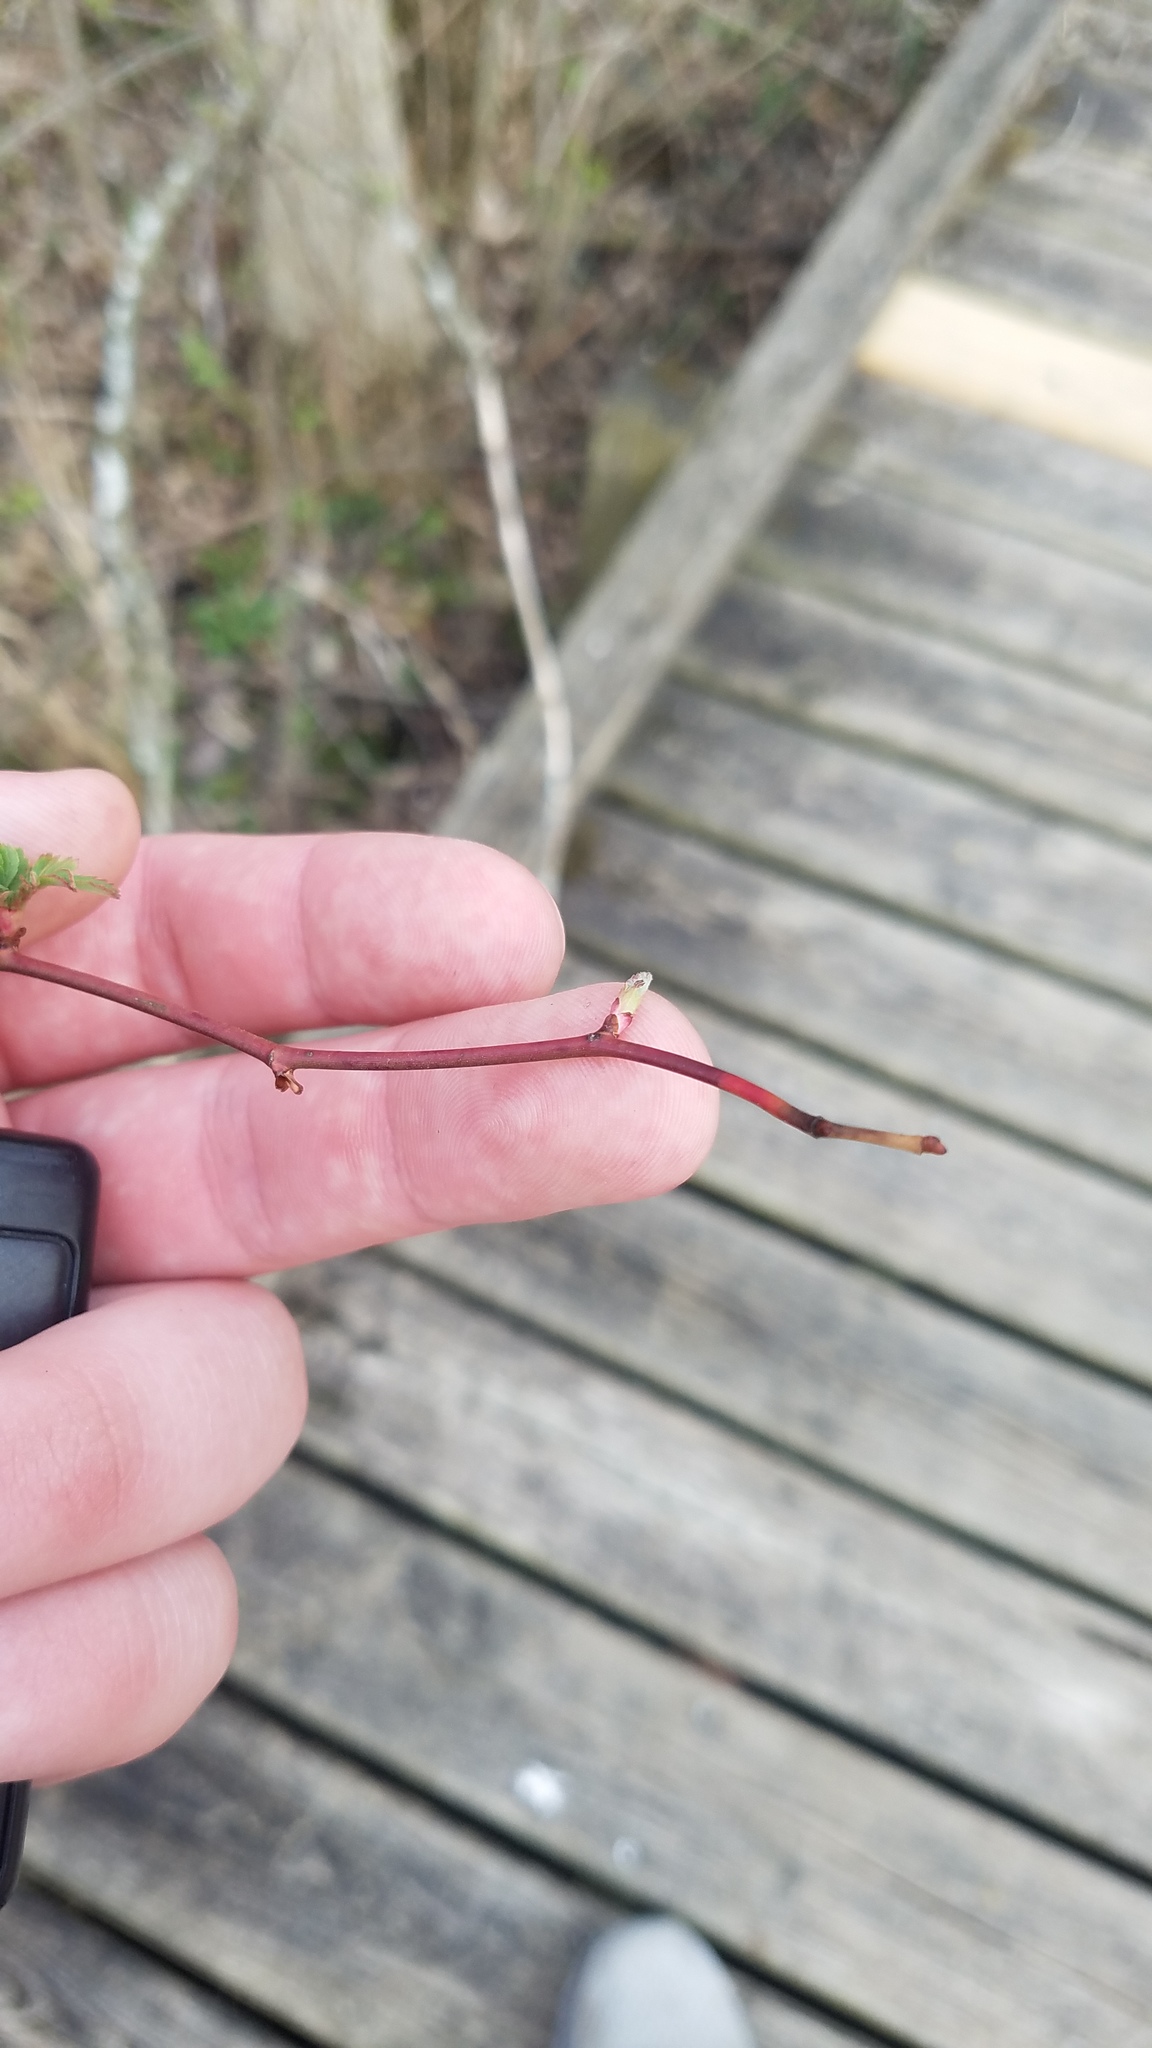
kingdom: Plantae
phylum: Tracheophyta
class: Magnoliopsida
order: Rosales
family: Rosaceae
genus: Rosa
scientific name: Rosa multiflora
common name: Multiflora rose
